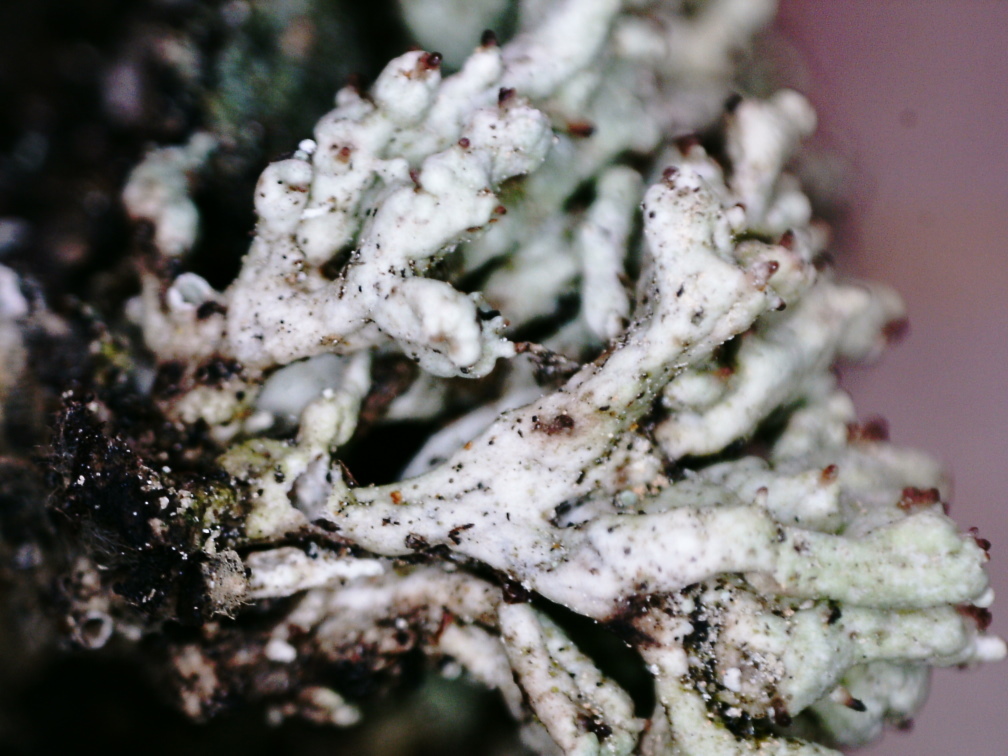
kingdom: Fungi
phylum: Ascomycota
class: Lecanoromycetes
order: Lecanorales
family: Cladoniaceae
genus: Pycnothelia
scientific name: Pycnothelia papillaria
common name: Nipple lichen
